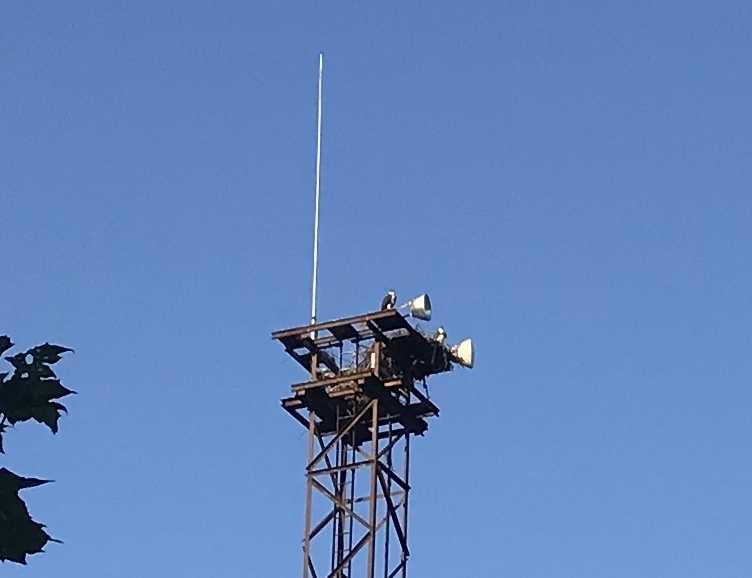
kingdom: Animalia
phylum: Chordata
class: Aves
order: Accipitriformes
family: Pandionidae
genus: Pandion
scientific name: Pandion haliaetus
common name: Osprey
